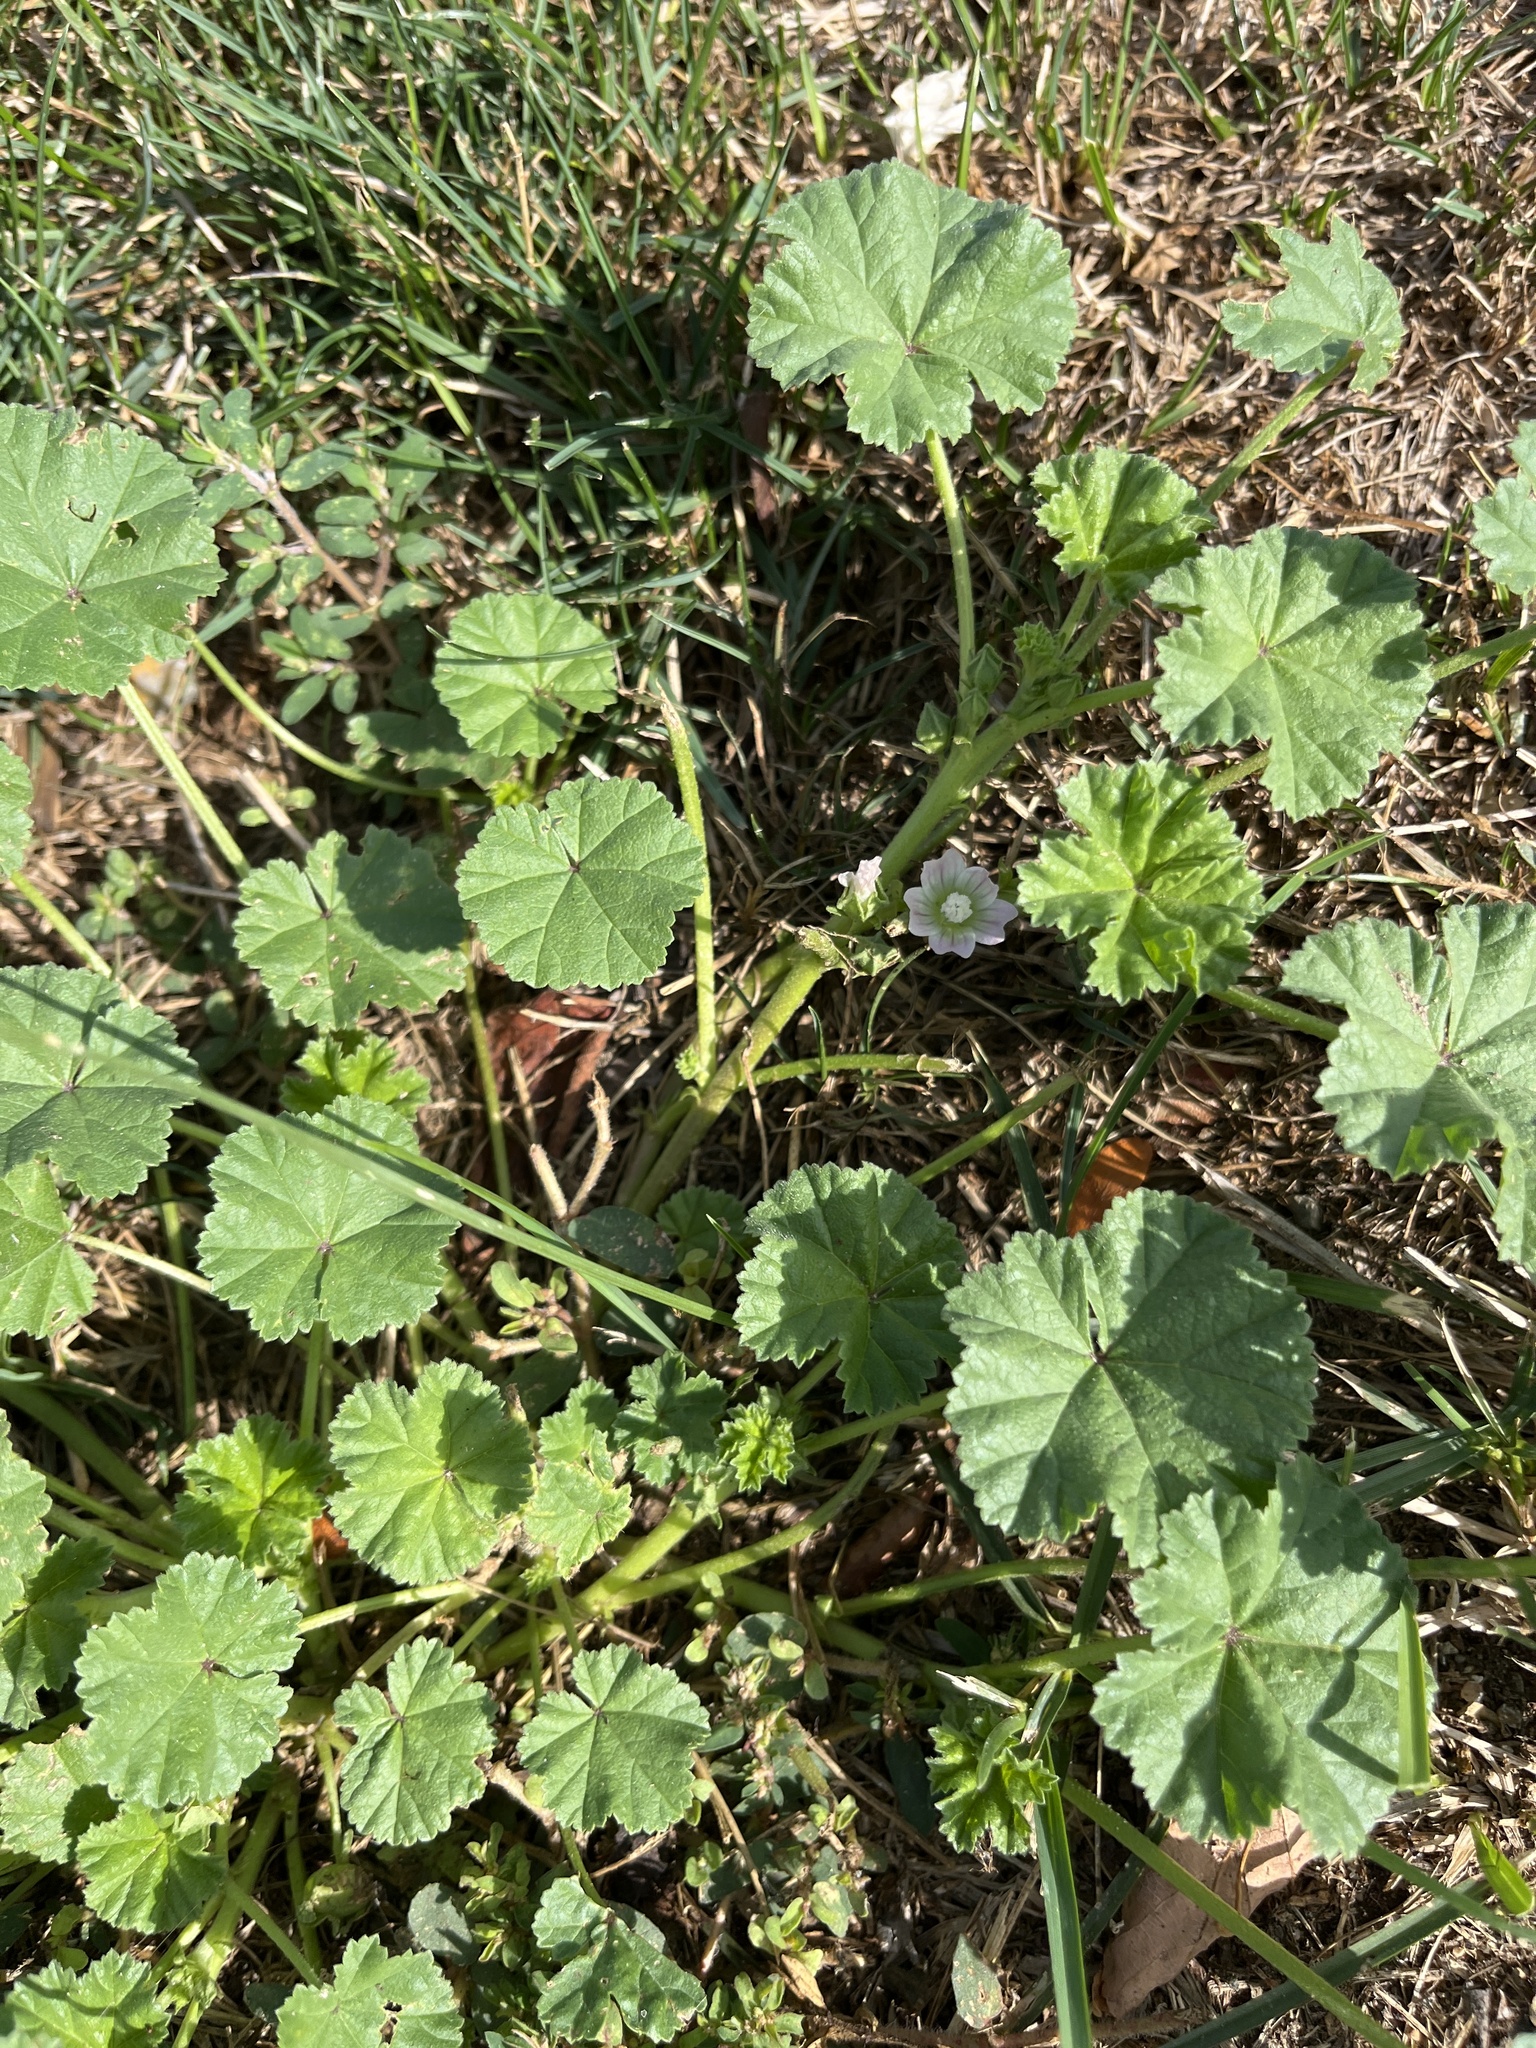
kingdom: Plantae
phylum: Tracheophyta
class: Magnoliopsida
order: Malvales
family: Malvaceae
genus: Malva
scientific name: Malva
